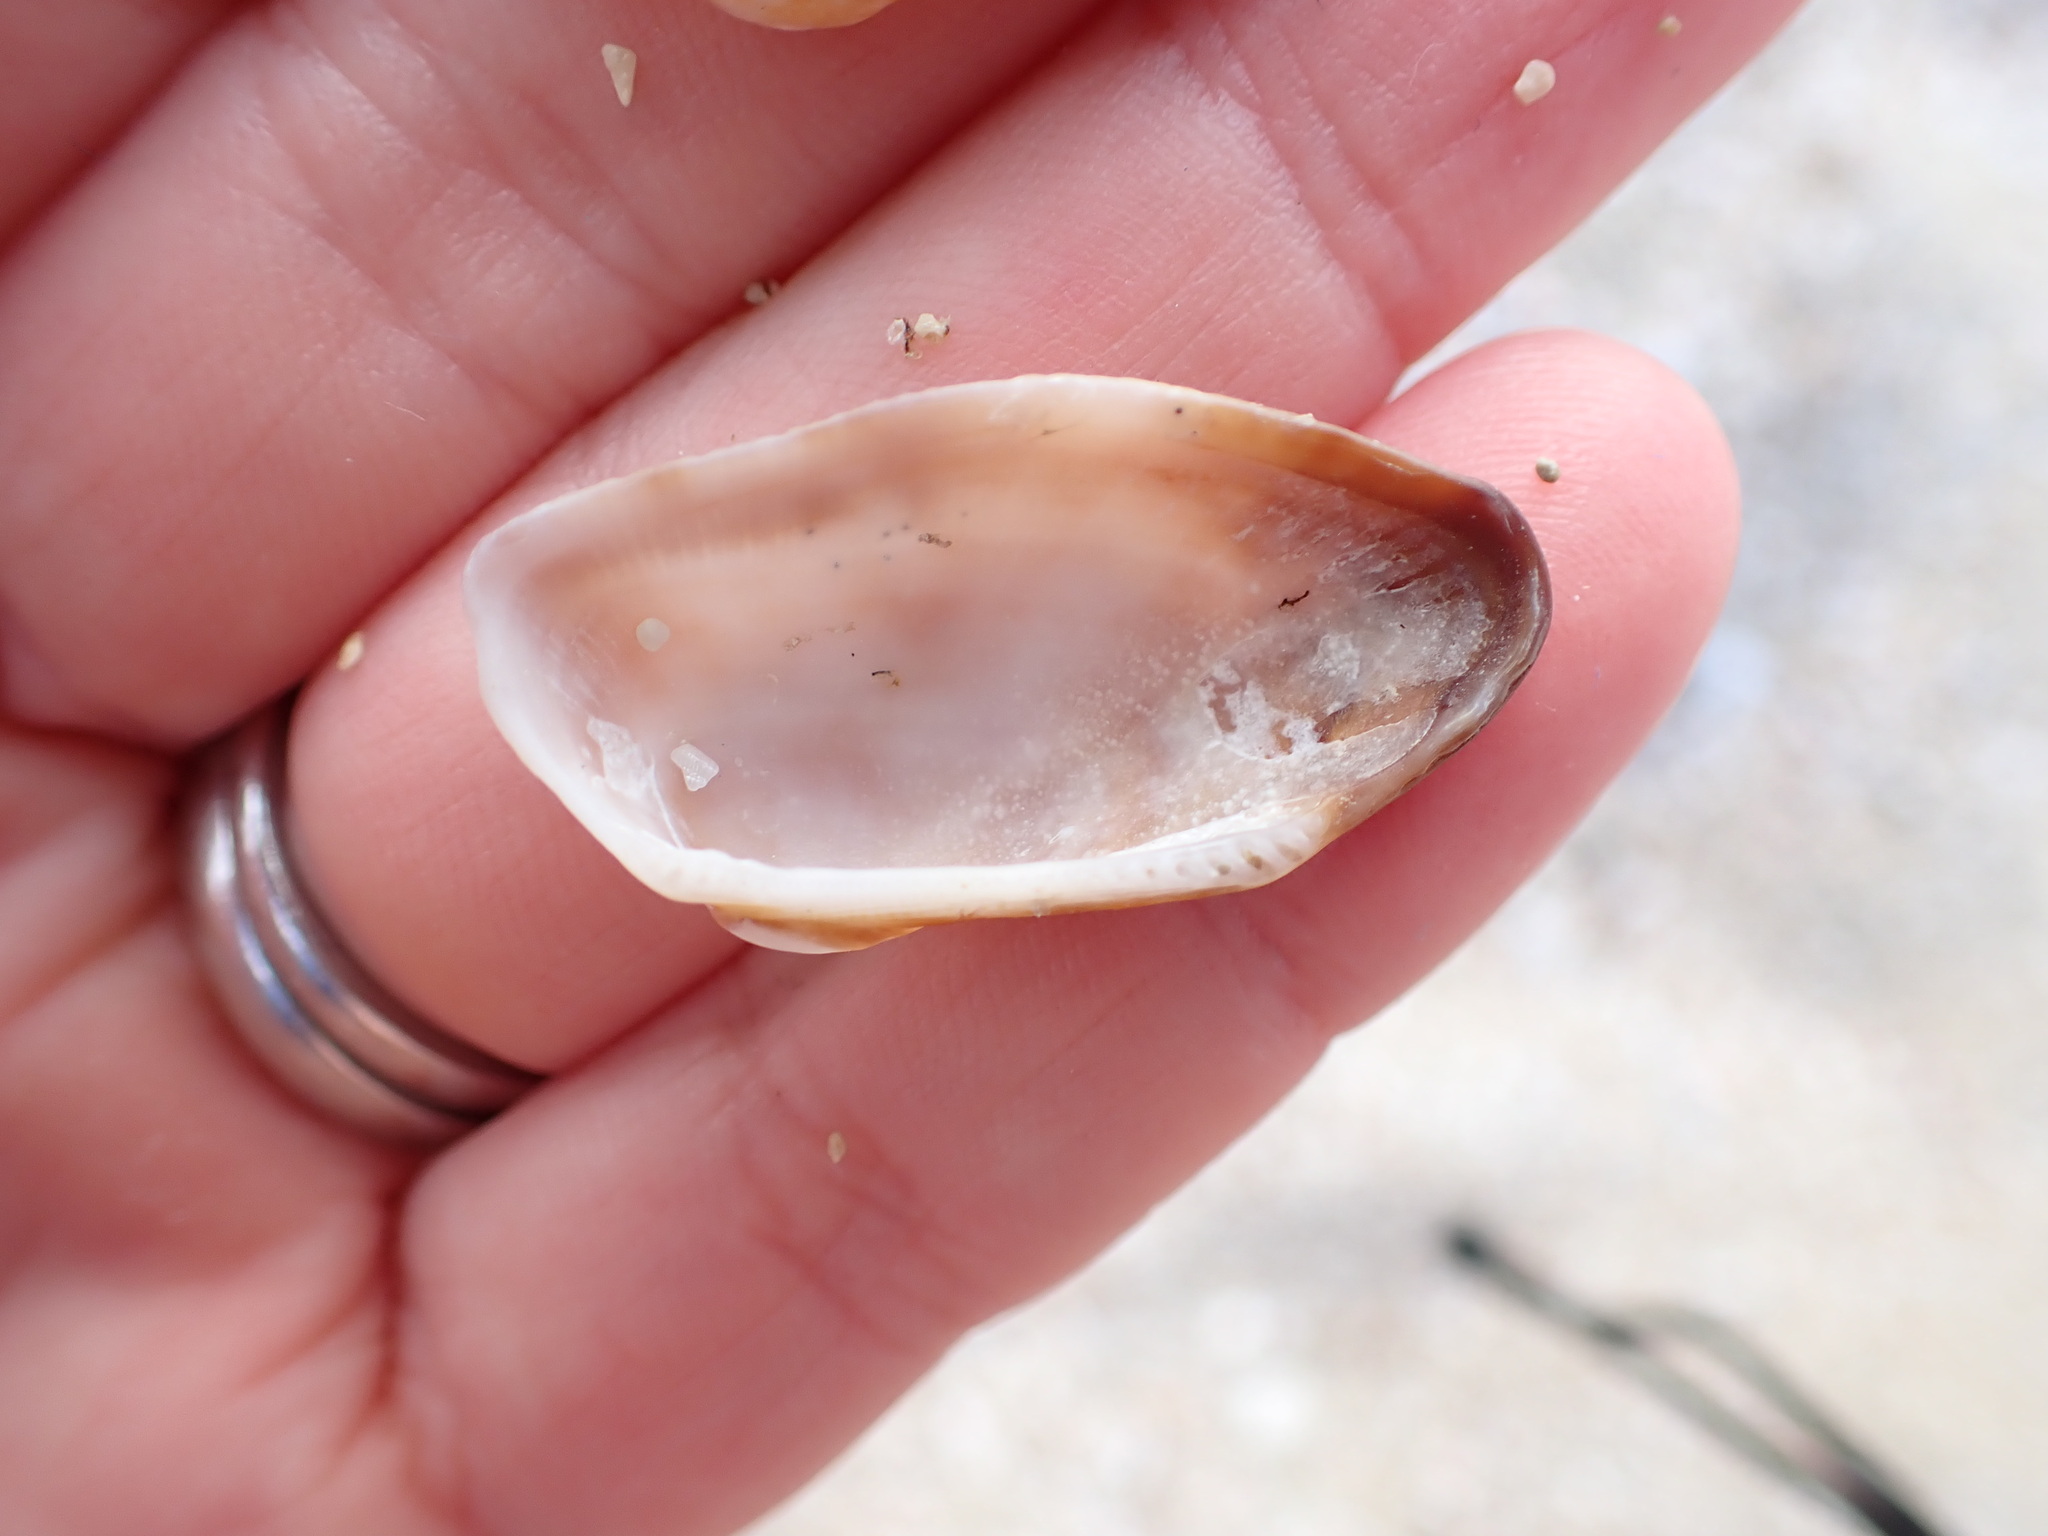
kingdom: Animalia
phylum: Mollusca
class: Bivalvia
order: Arcida
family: Arcidae
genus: Barbatia
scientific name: Barbatia barbata
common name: Bearded ark
